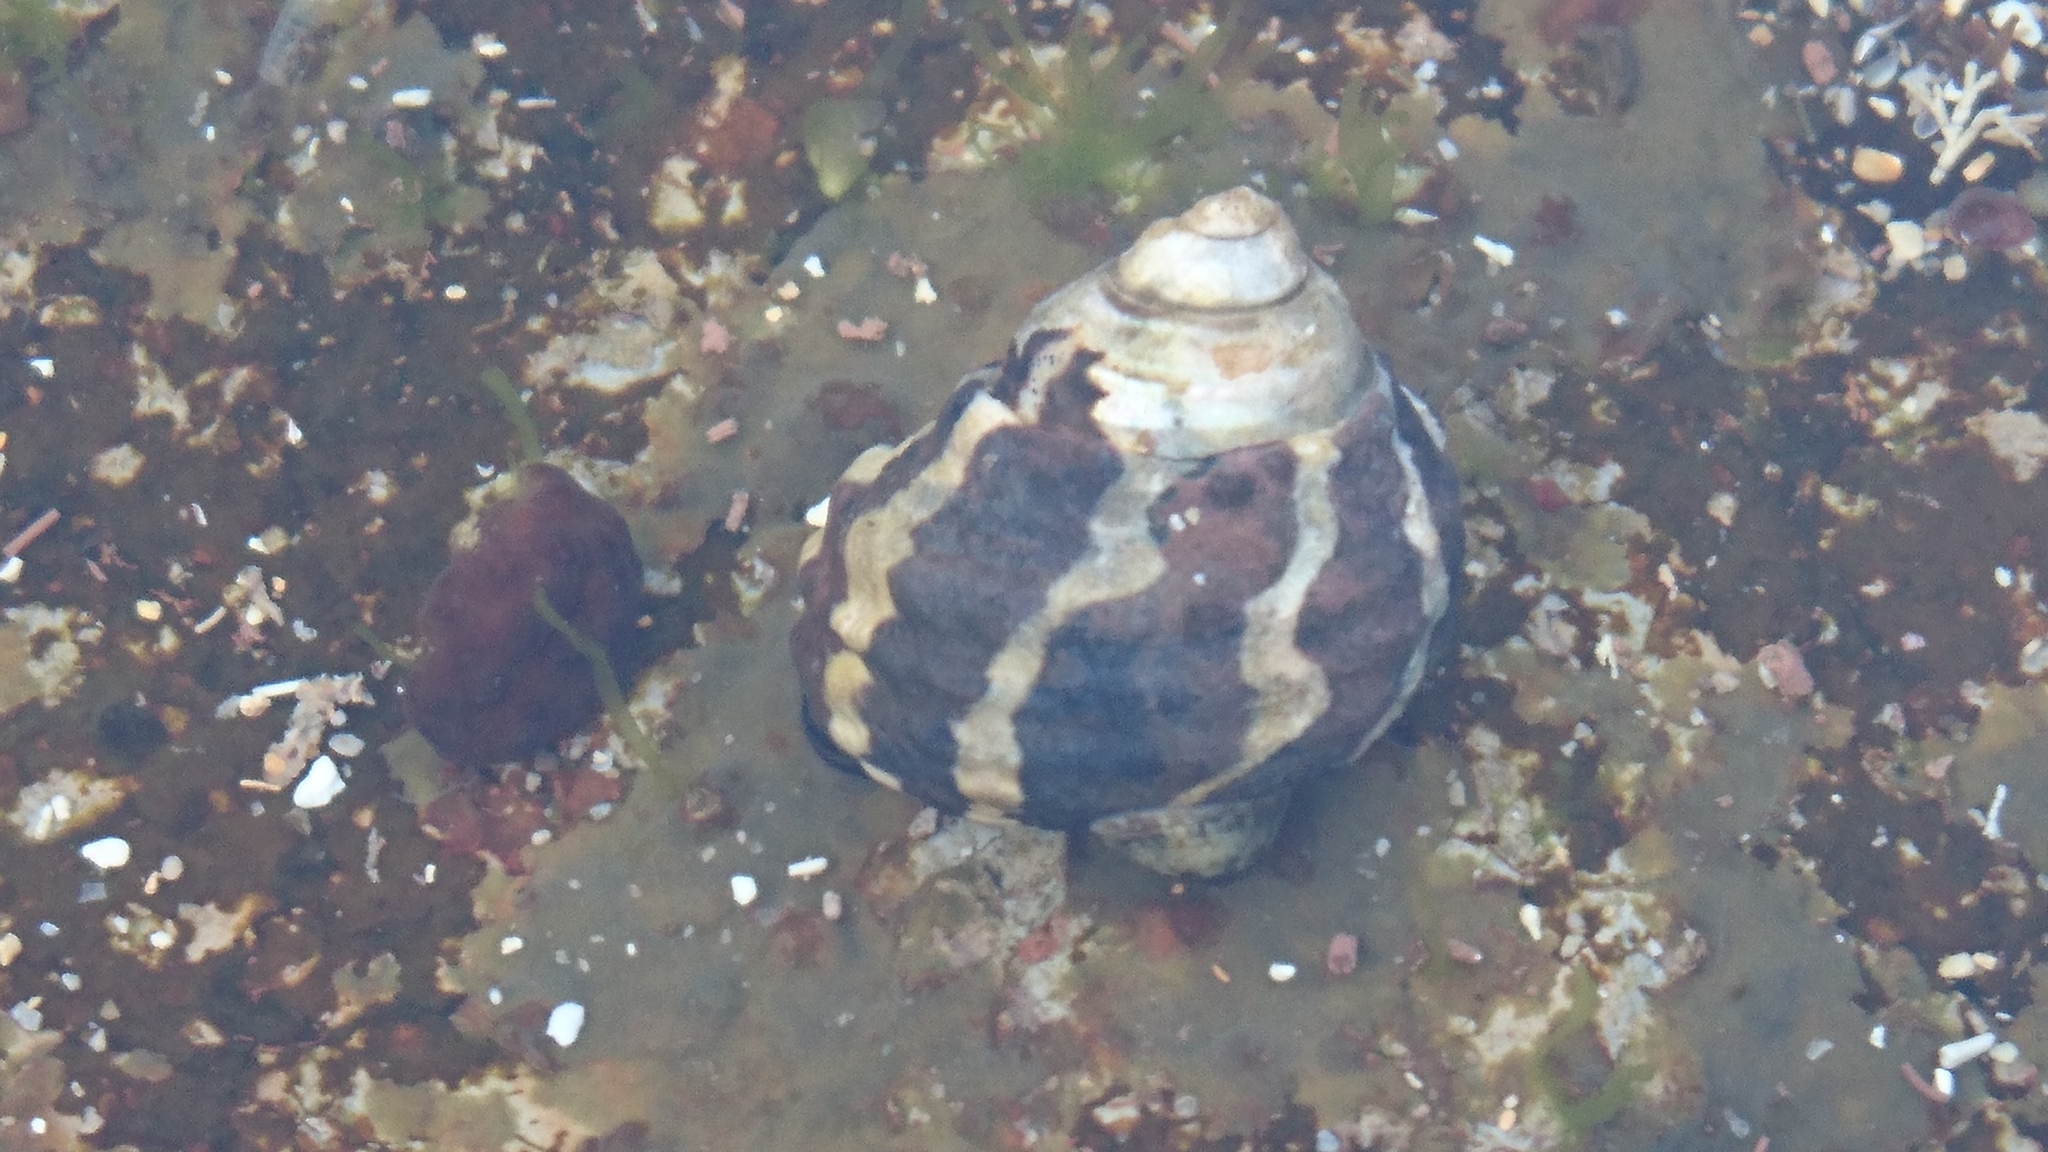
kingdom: Animalia
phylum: Mollusca
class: Gastropoda
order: Trochida
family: Trochidae
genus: Austrocochlea
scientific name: Austrocochlea porcata
